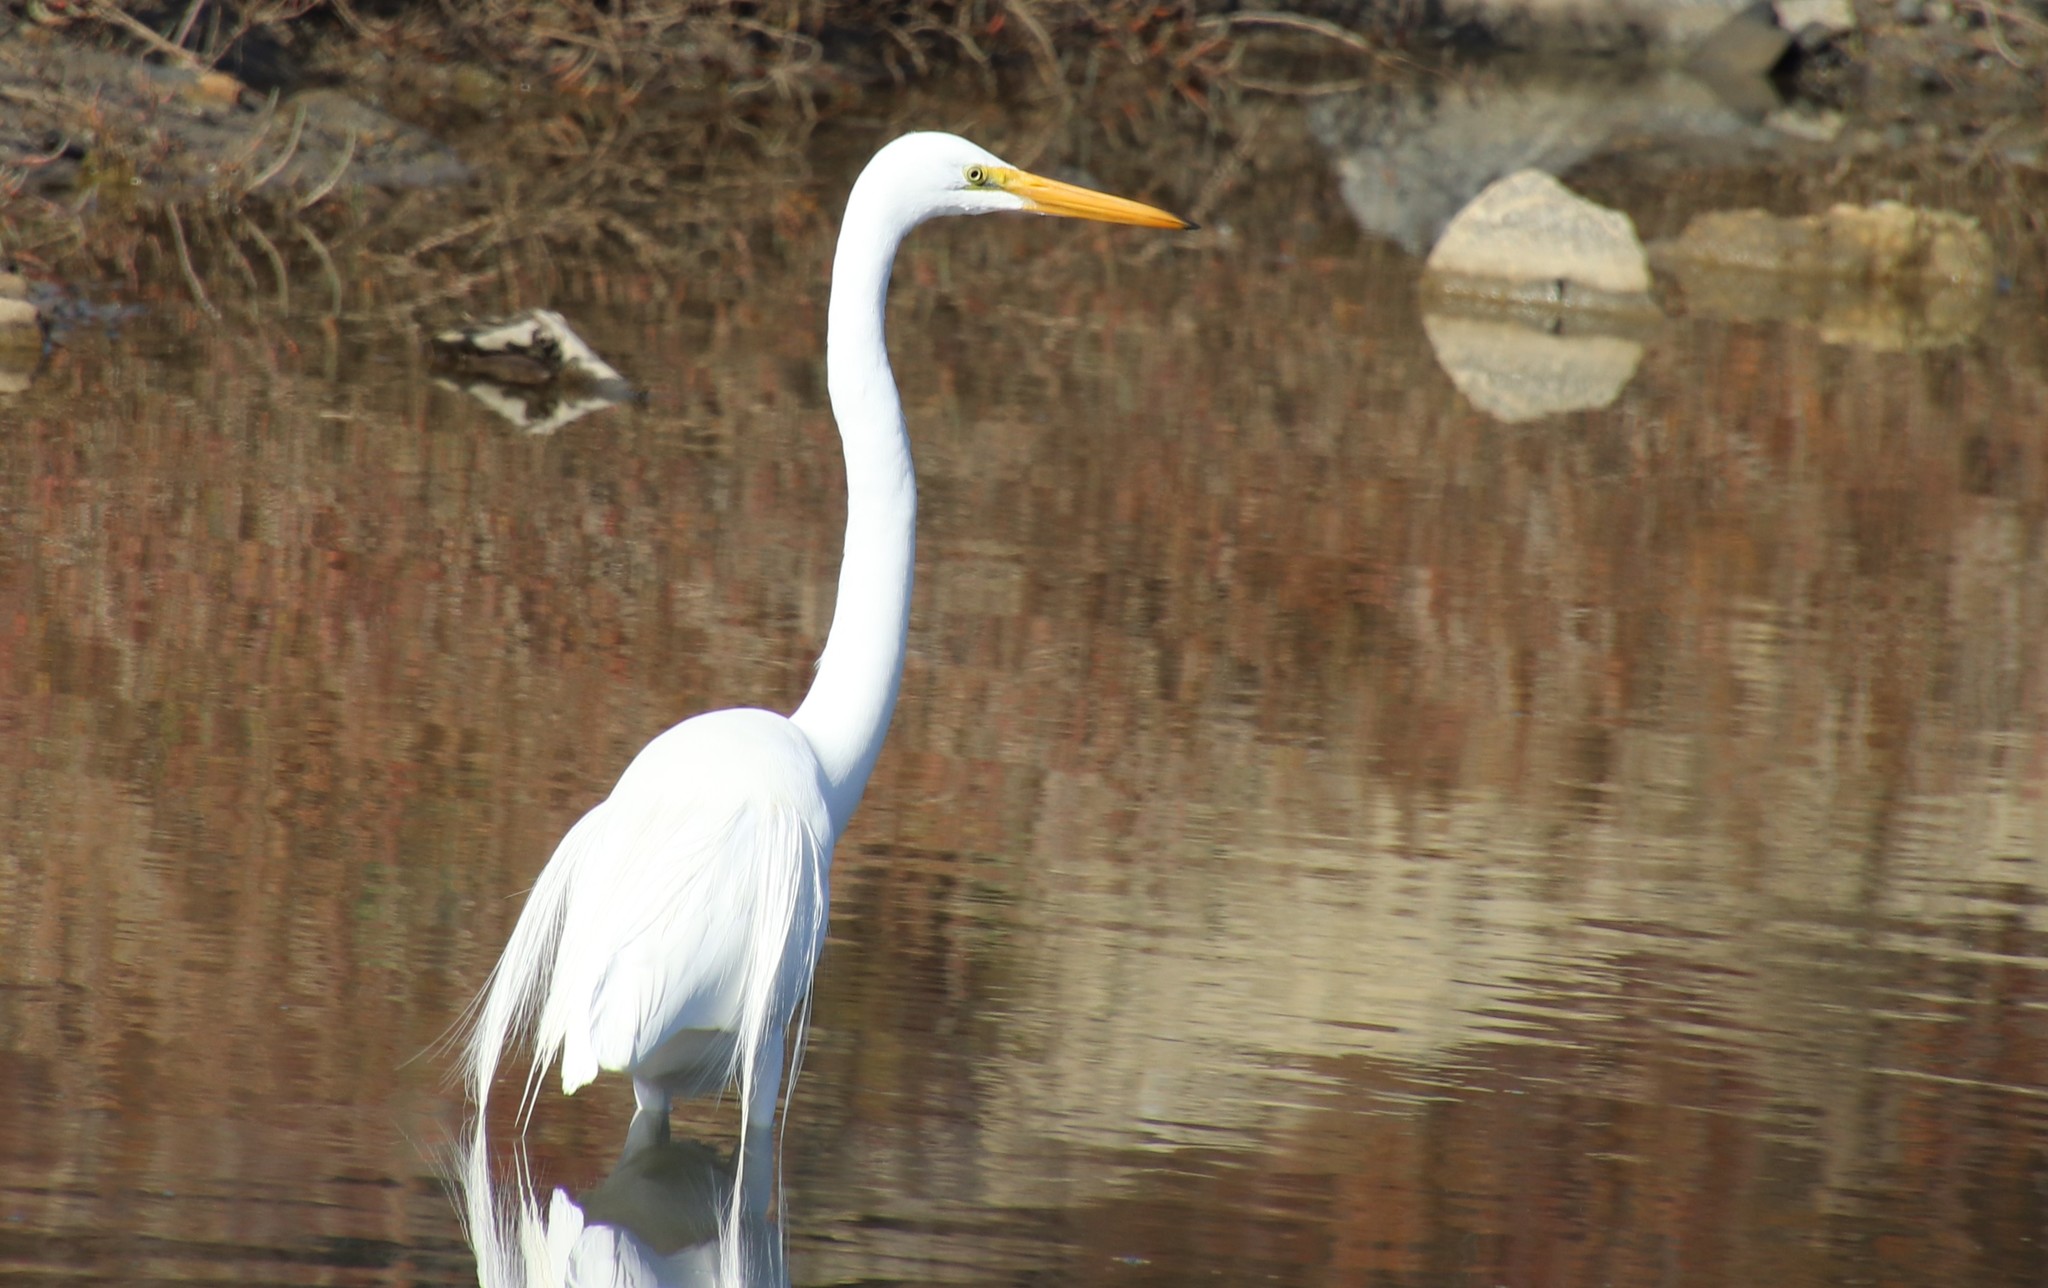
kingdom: Animalia
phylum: Chordata
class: Aves
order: Pelecaniformes
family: Ardeidae
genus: Ardea
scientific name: Ardea alba
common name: Great egret
